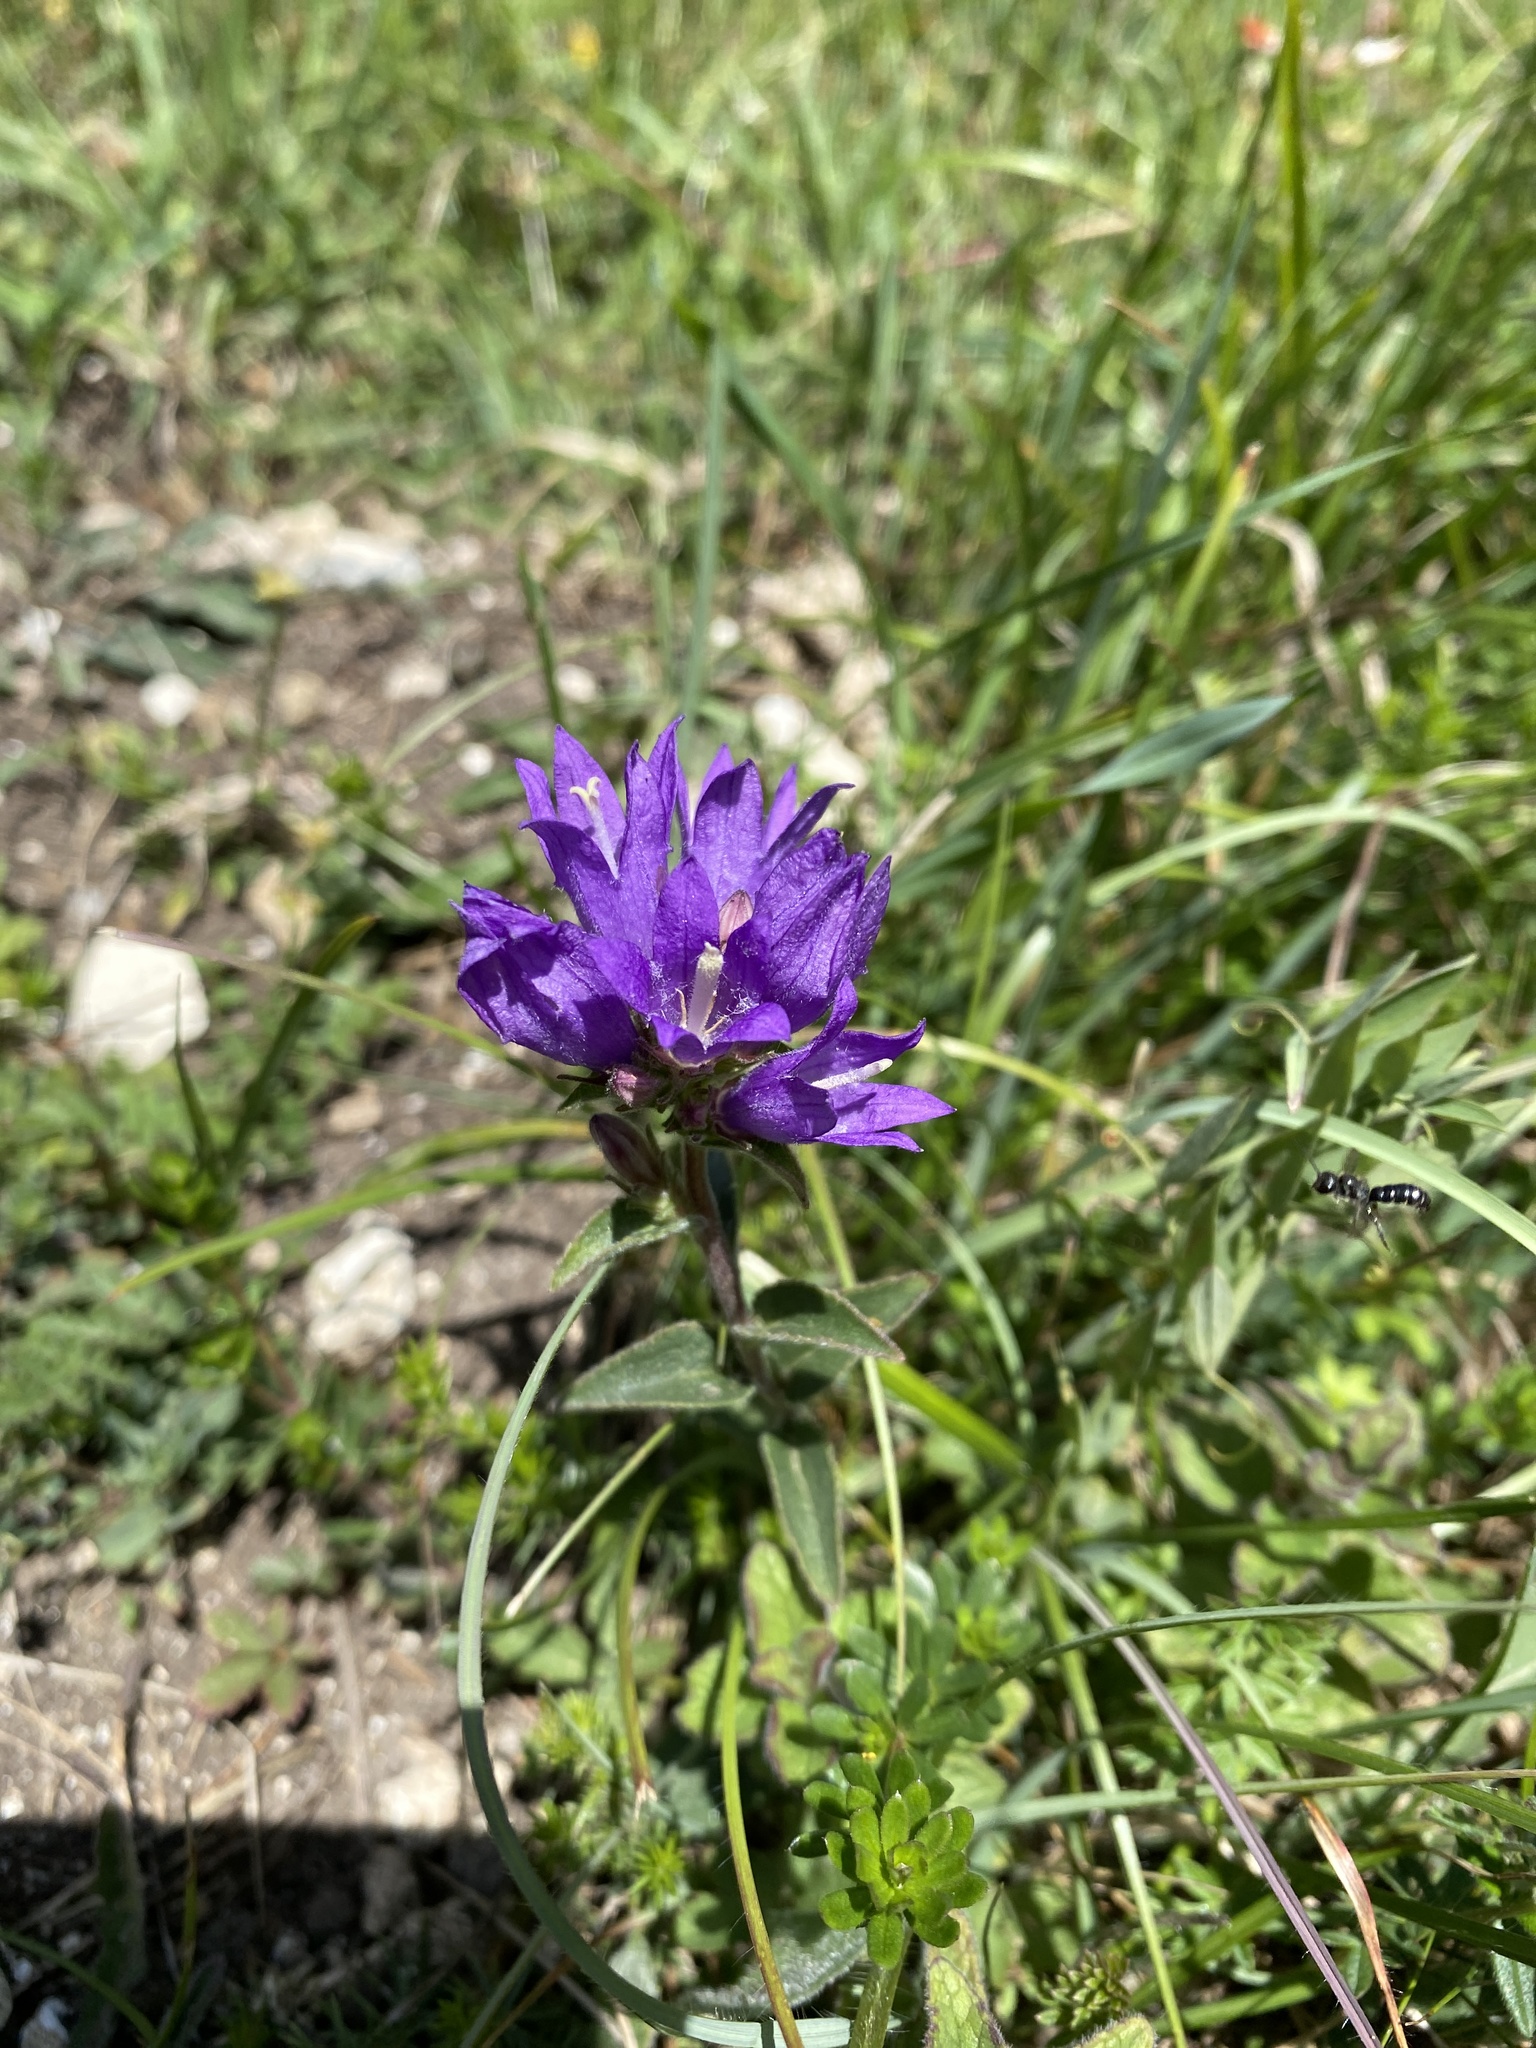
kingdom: Plantae
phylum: Tracheophyta
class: Magnoliopsida
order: Asterales
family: Campanulaceae
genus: Campanula
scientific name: Campanula glomerata
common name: Clustered bellflower
